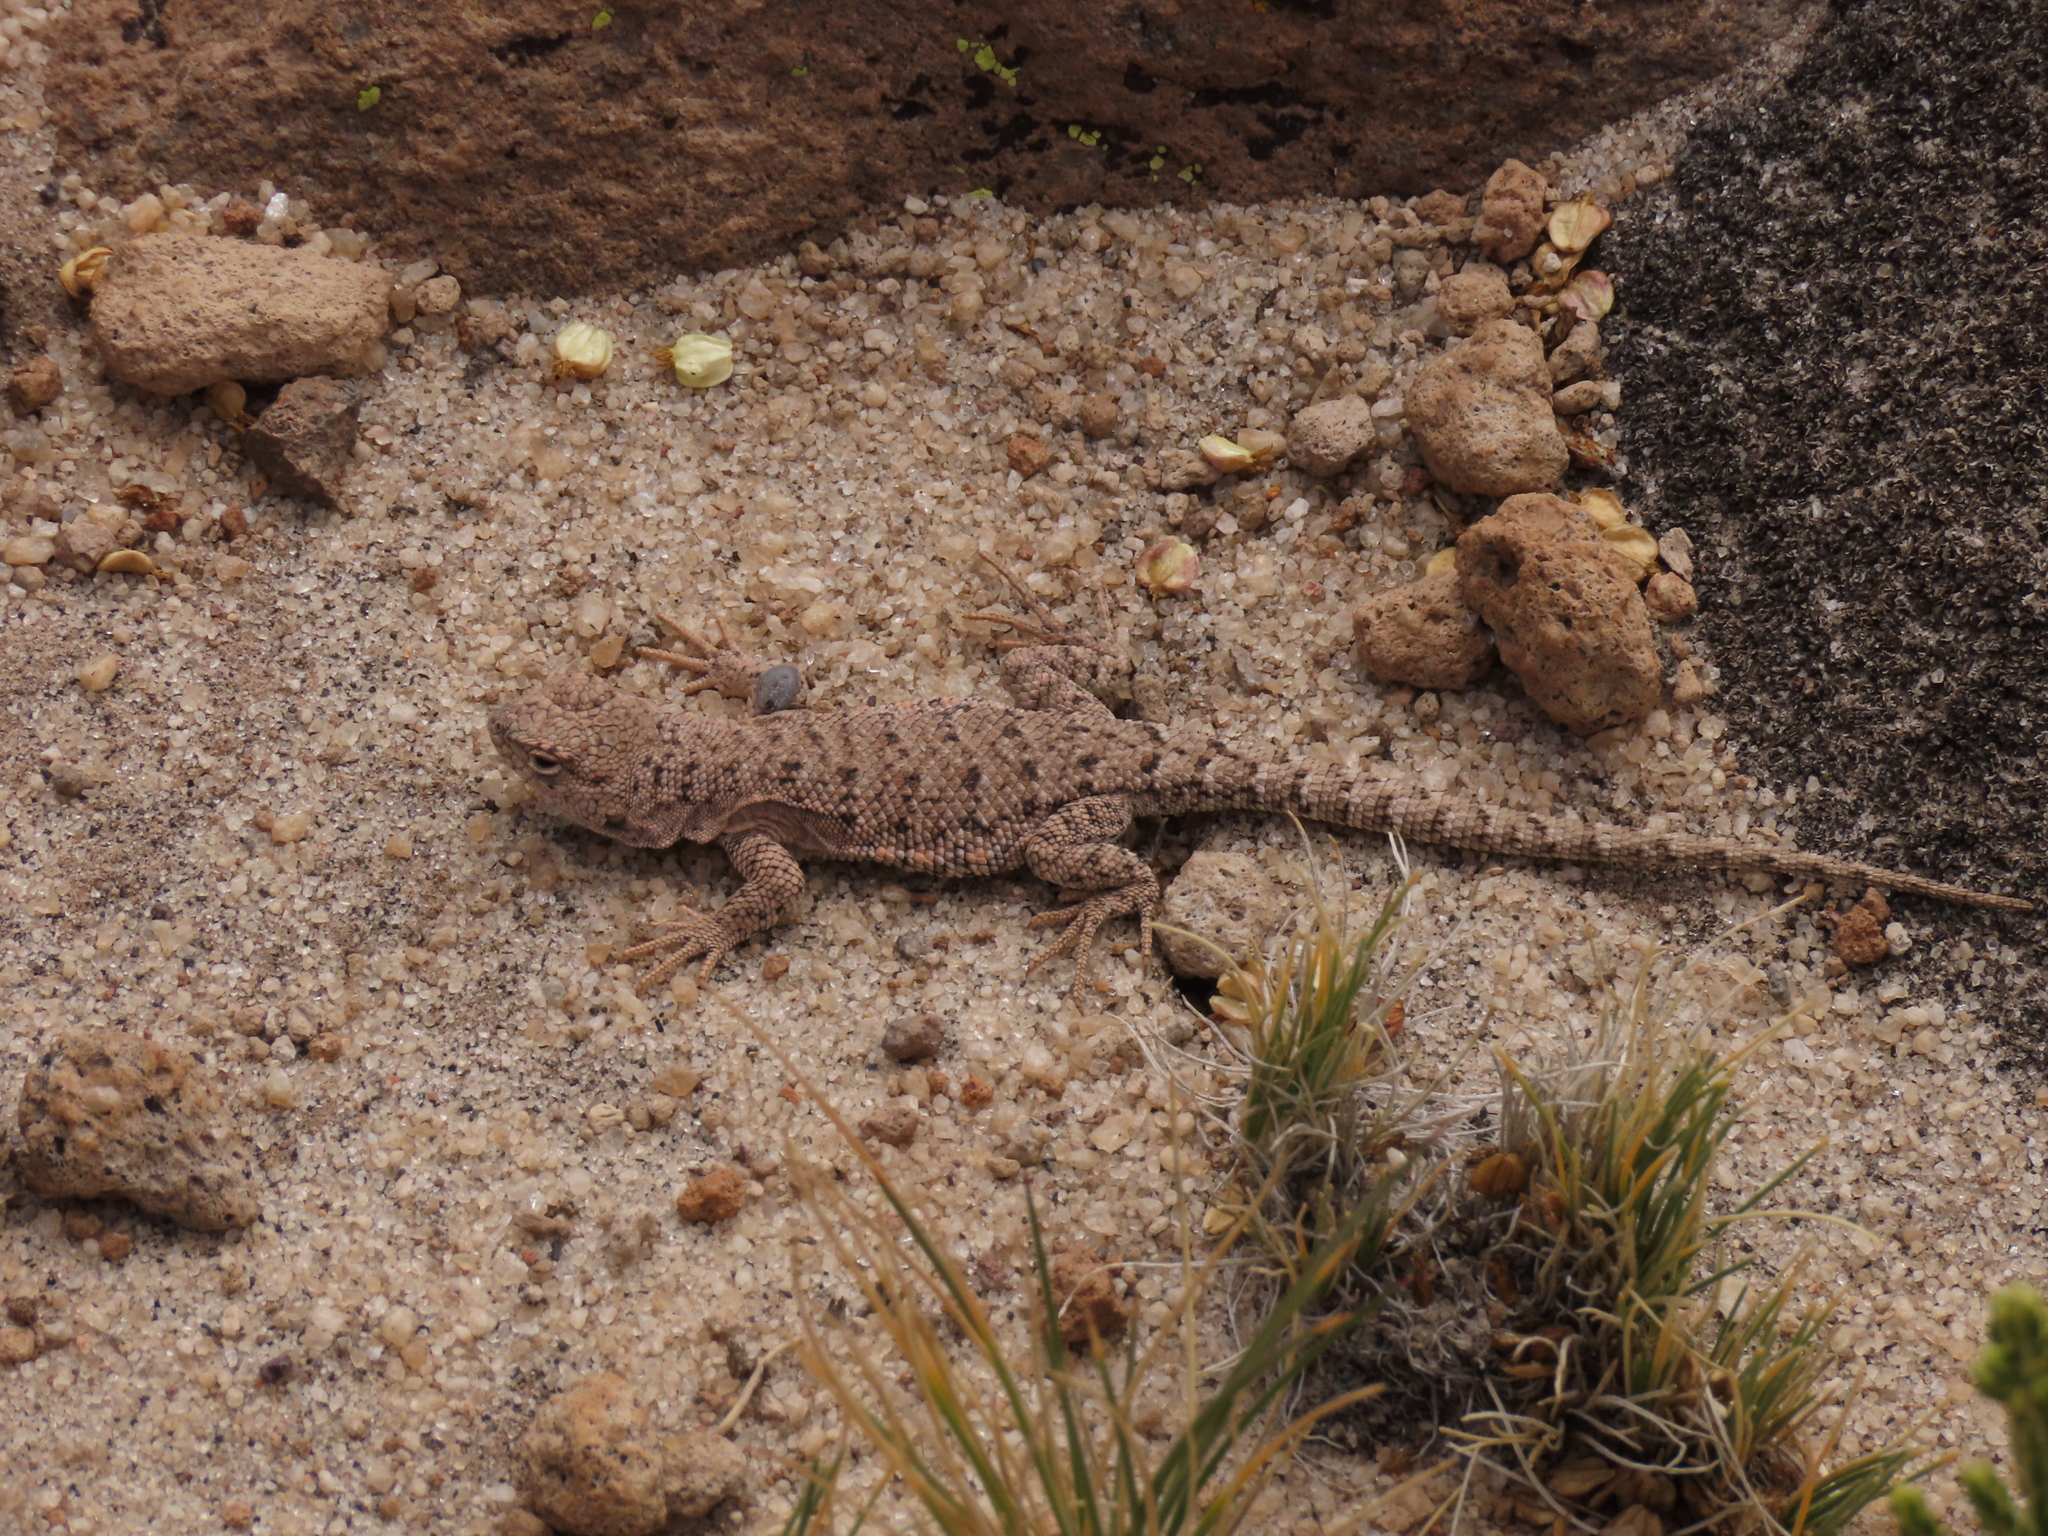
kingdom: Animalia
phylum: Chordata
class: Squamata
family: Liolaemidae
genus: Liolaemus
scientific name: Liolaemus jamesi
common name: James' tree iguana
